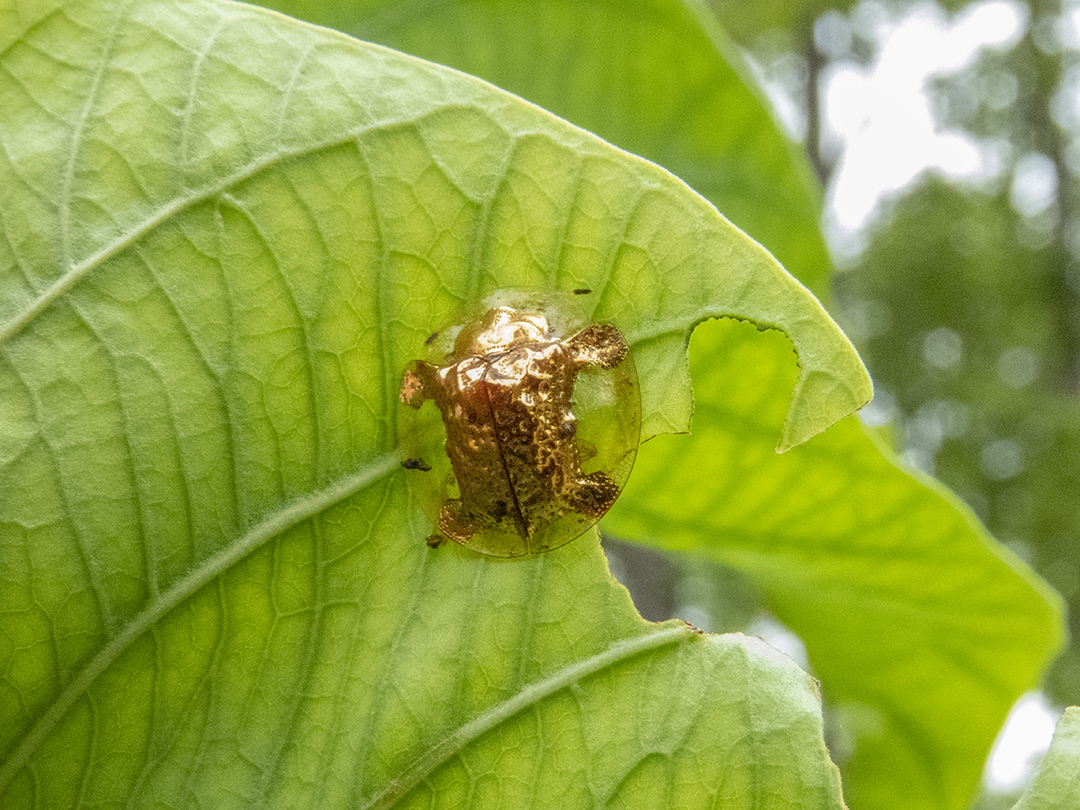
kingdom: Animalia
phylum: Arthropoda
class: Insecta
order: Coleoptera
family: Chrysomelidae
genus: Aspidimorpha
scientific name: Aspidimorpha sanctaecrucis
